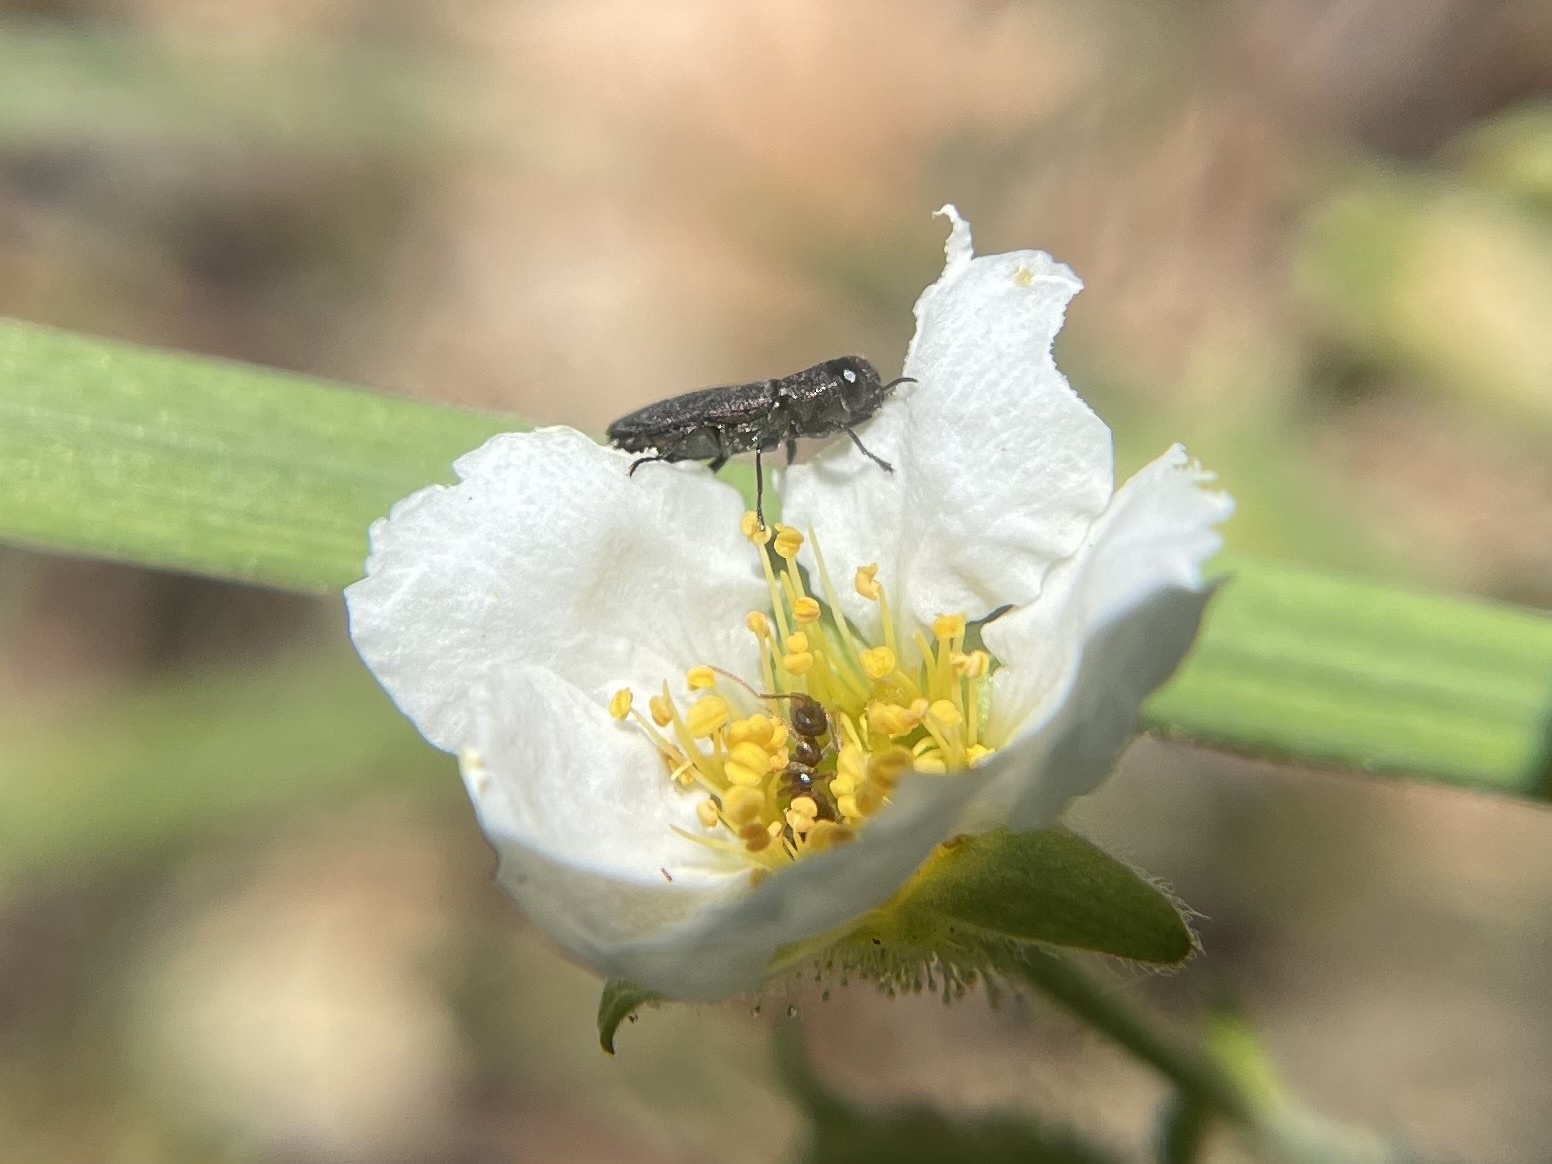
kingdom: Animalia
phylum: Arthropoda
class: Insecta
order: Hymenoptera
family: Formicidae
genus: Prenolepis
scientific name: Prenolepis imparis
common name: Small honey ant
